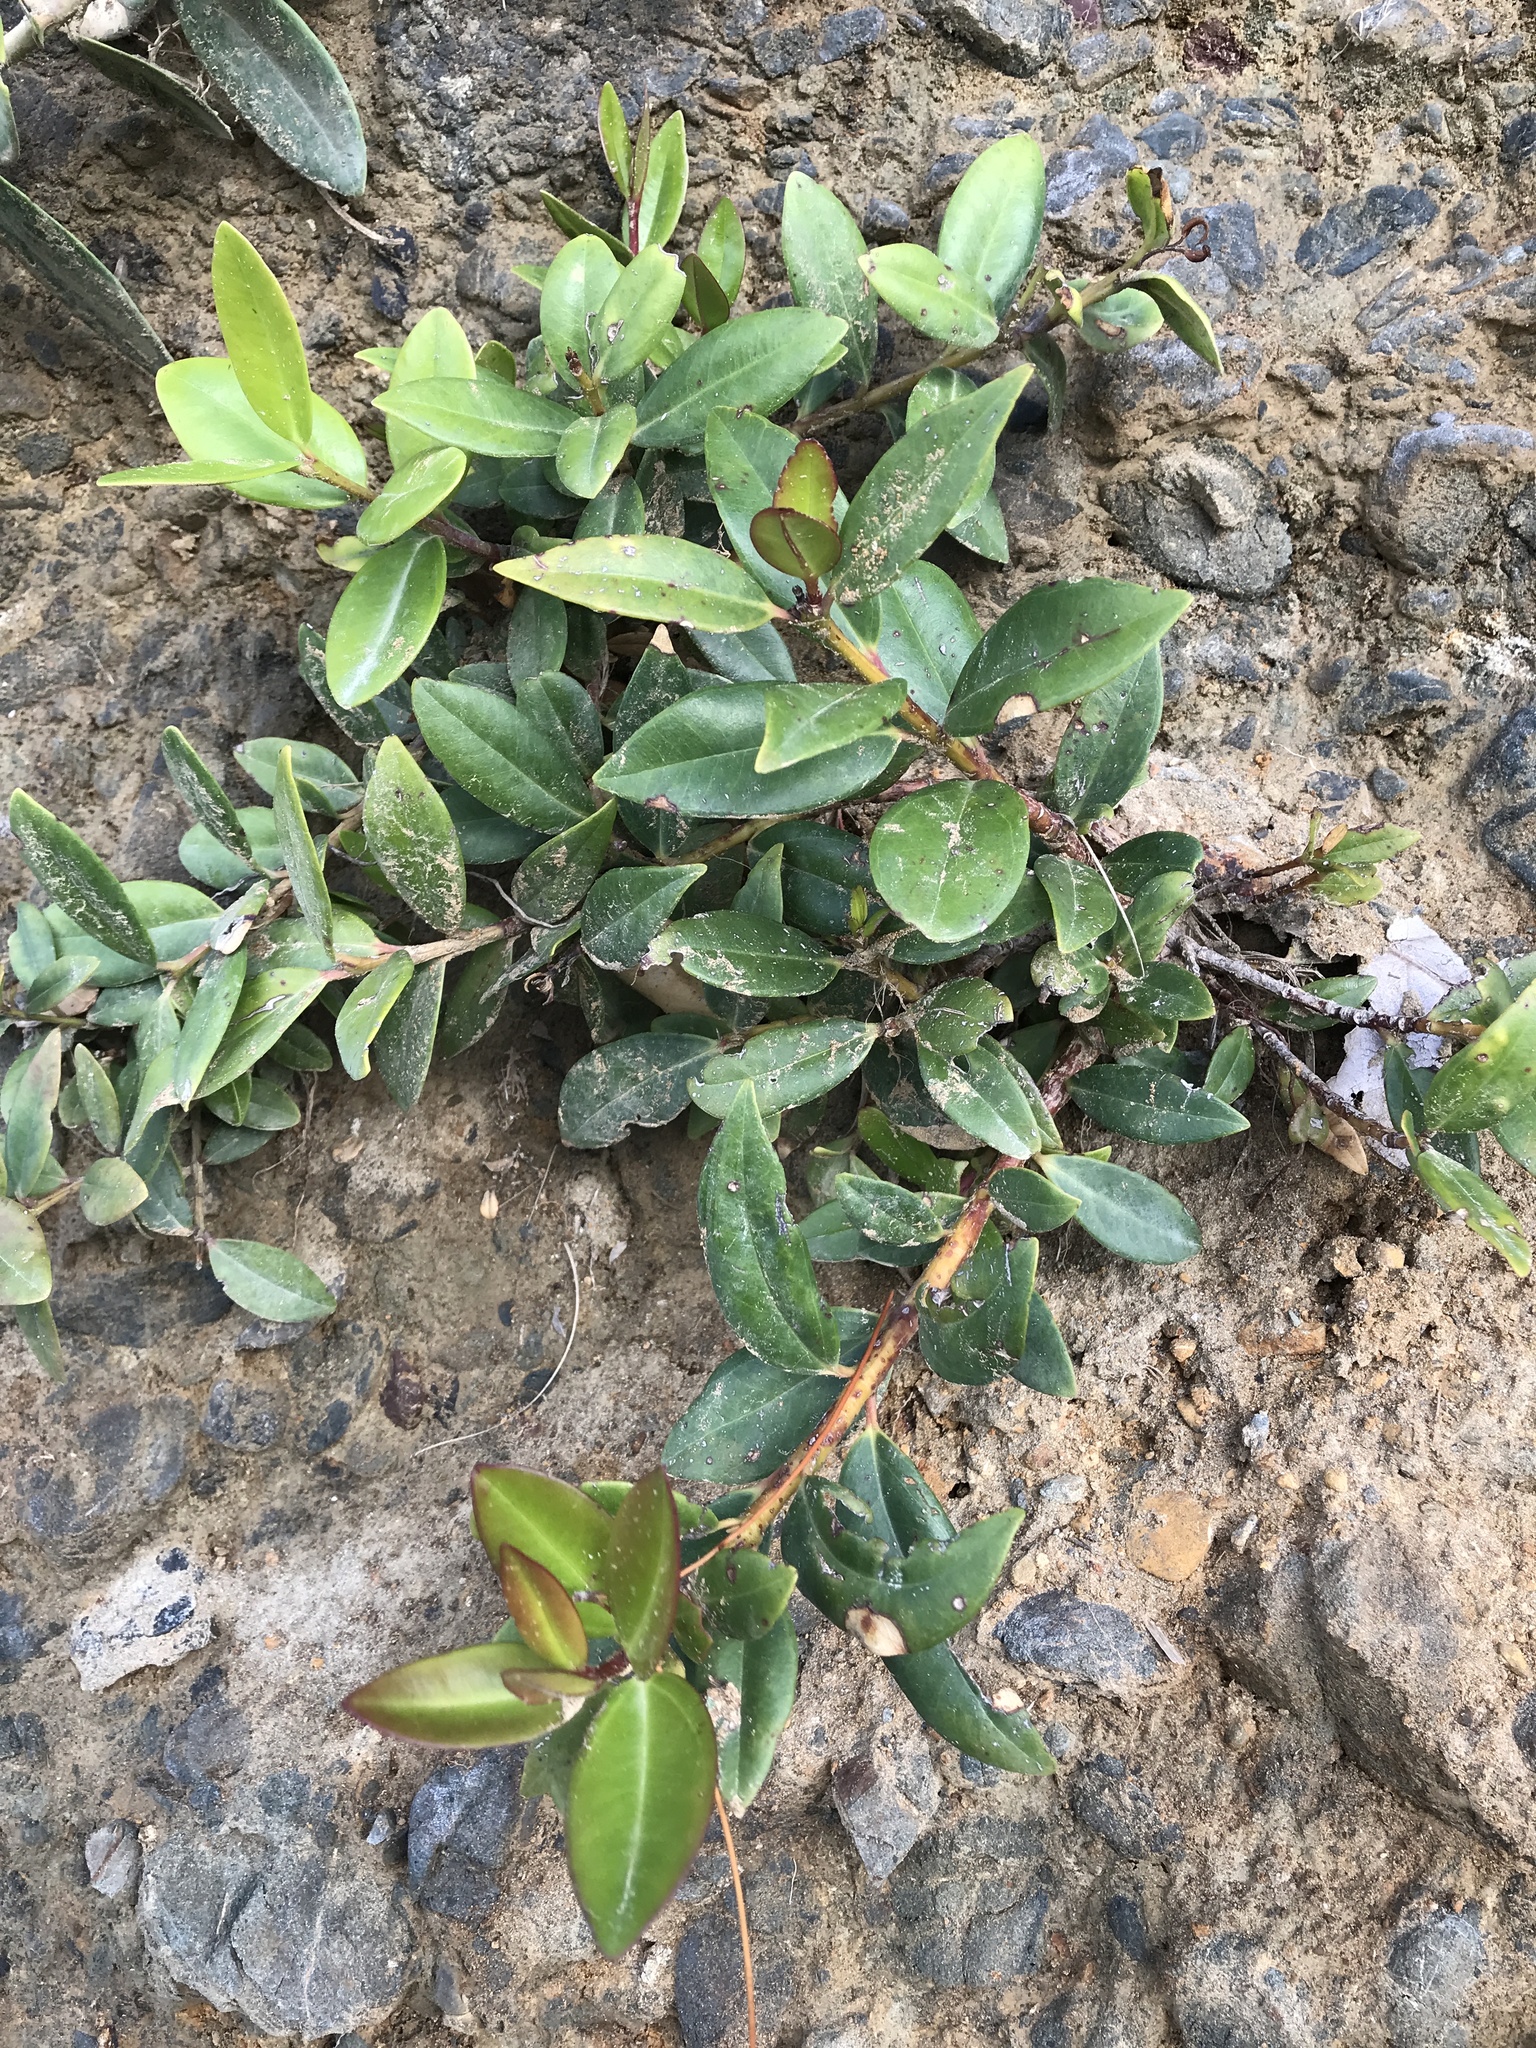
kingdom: Plantae
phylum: Tracheophyta
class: Magnoliopsida
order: Myrtales
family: Myrtaceae
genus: Metrosideros
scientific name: Metrosideros excelsa
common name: New zealand christmastree
